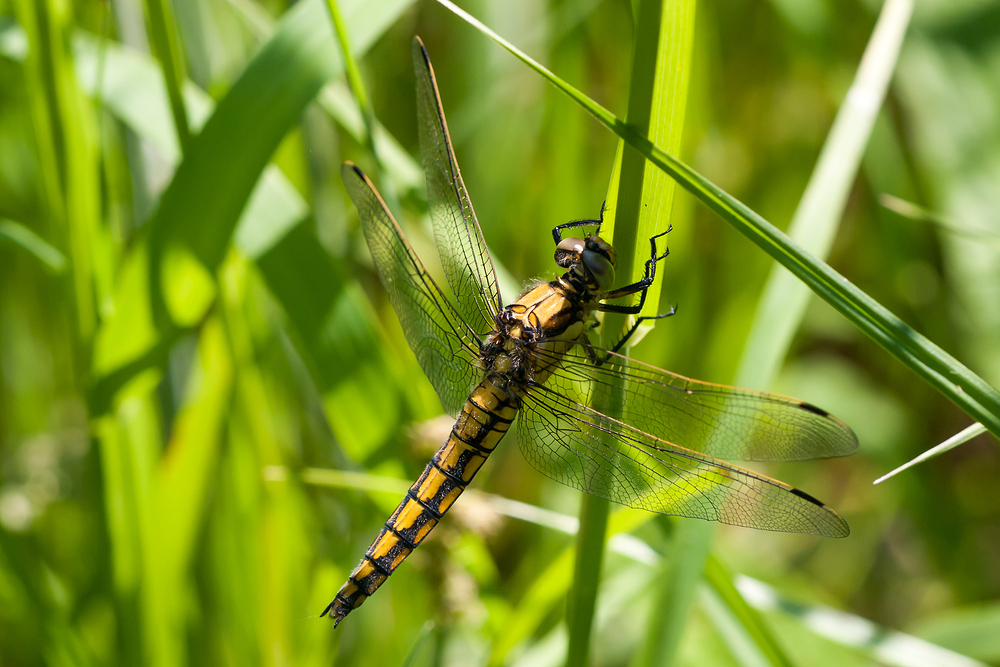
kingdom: Animalia
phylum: Arthropoda
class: Insecta
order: Odonata
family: Libellulidae
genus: Orthetrum
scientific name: Orthetrum cancellatum
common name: Black-tailed skimmer
